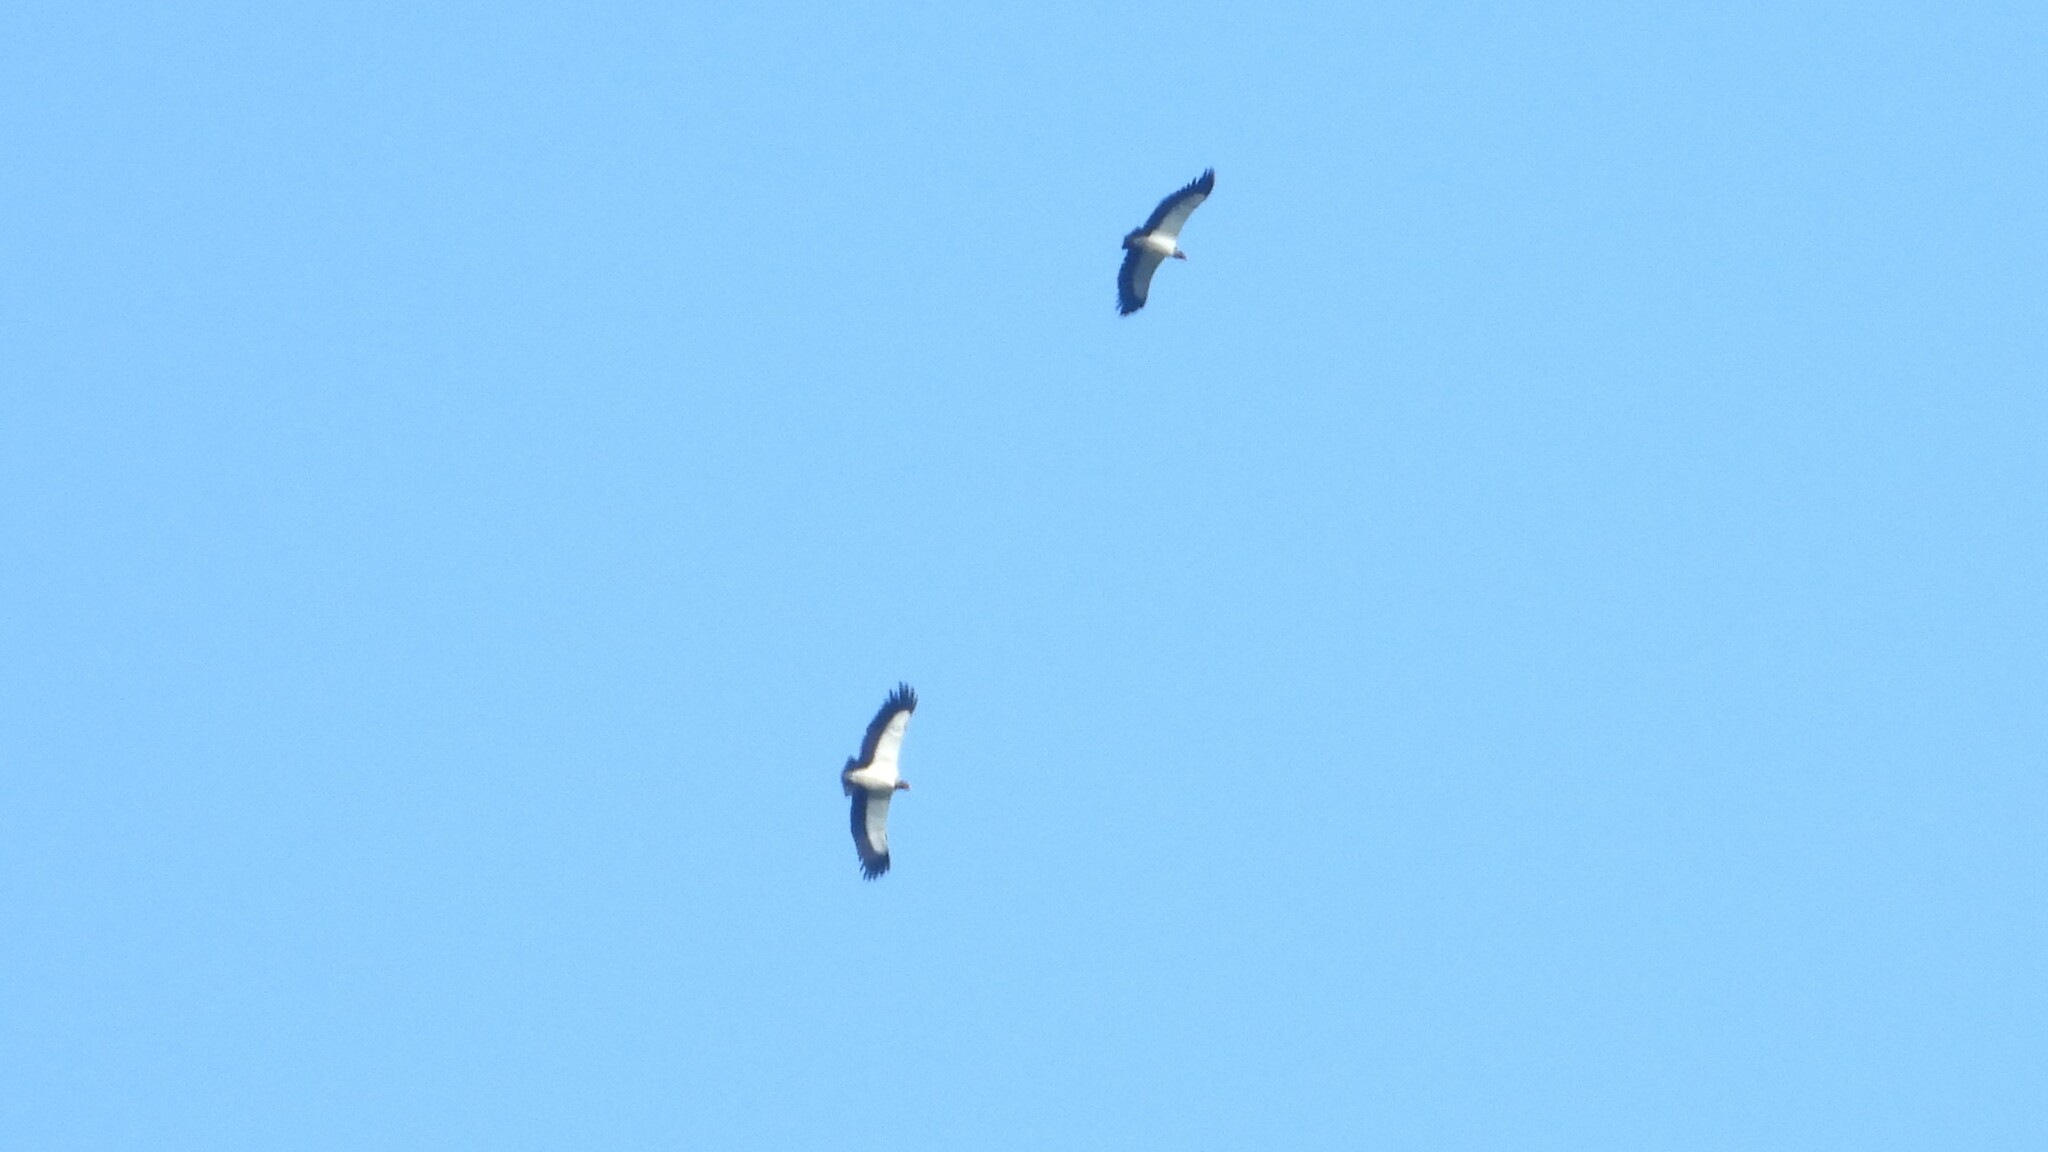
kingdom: Animalia
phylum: Chordata
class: Aves
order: Accipitriformes
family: Cathartidae
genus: Sarcoramphus
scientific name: Sarcoramphus papa
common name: King vulture
